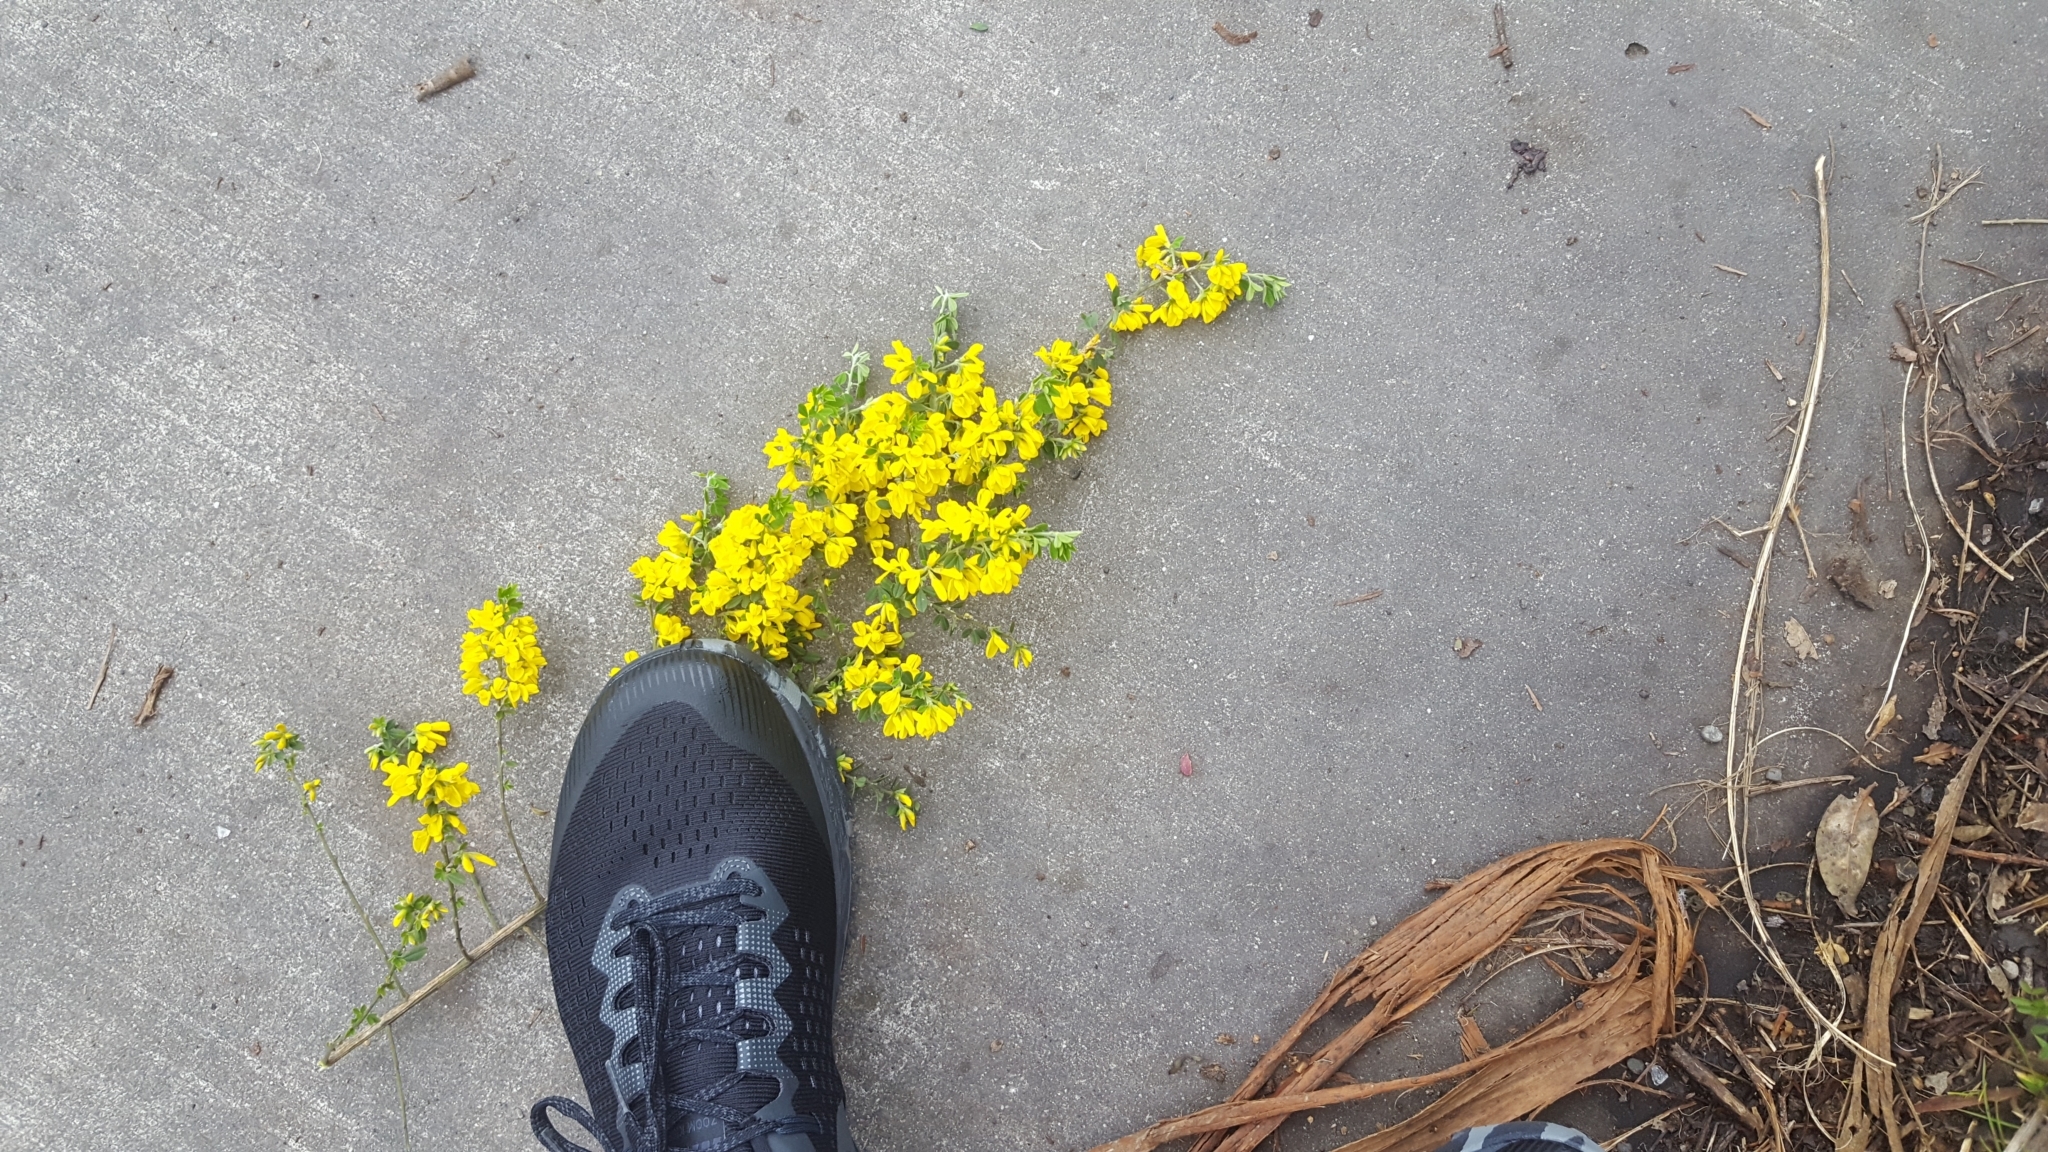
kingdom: Plantae
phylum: Tracheophyta
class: Magnoliopsida
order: Fabales
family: Fabaceae
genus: Genista
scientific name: Genista monspessulana
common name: Montpellier broom
